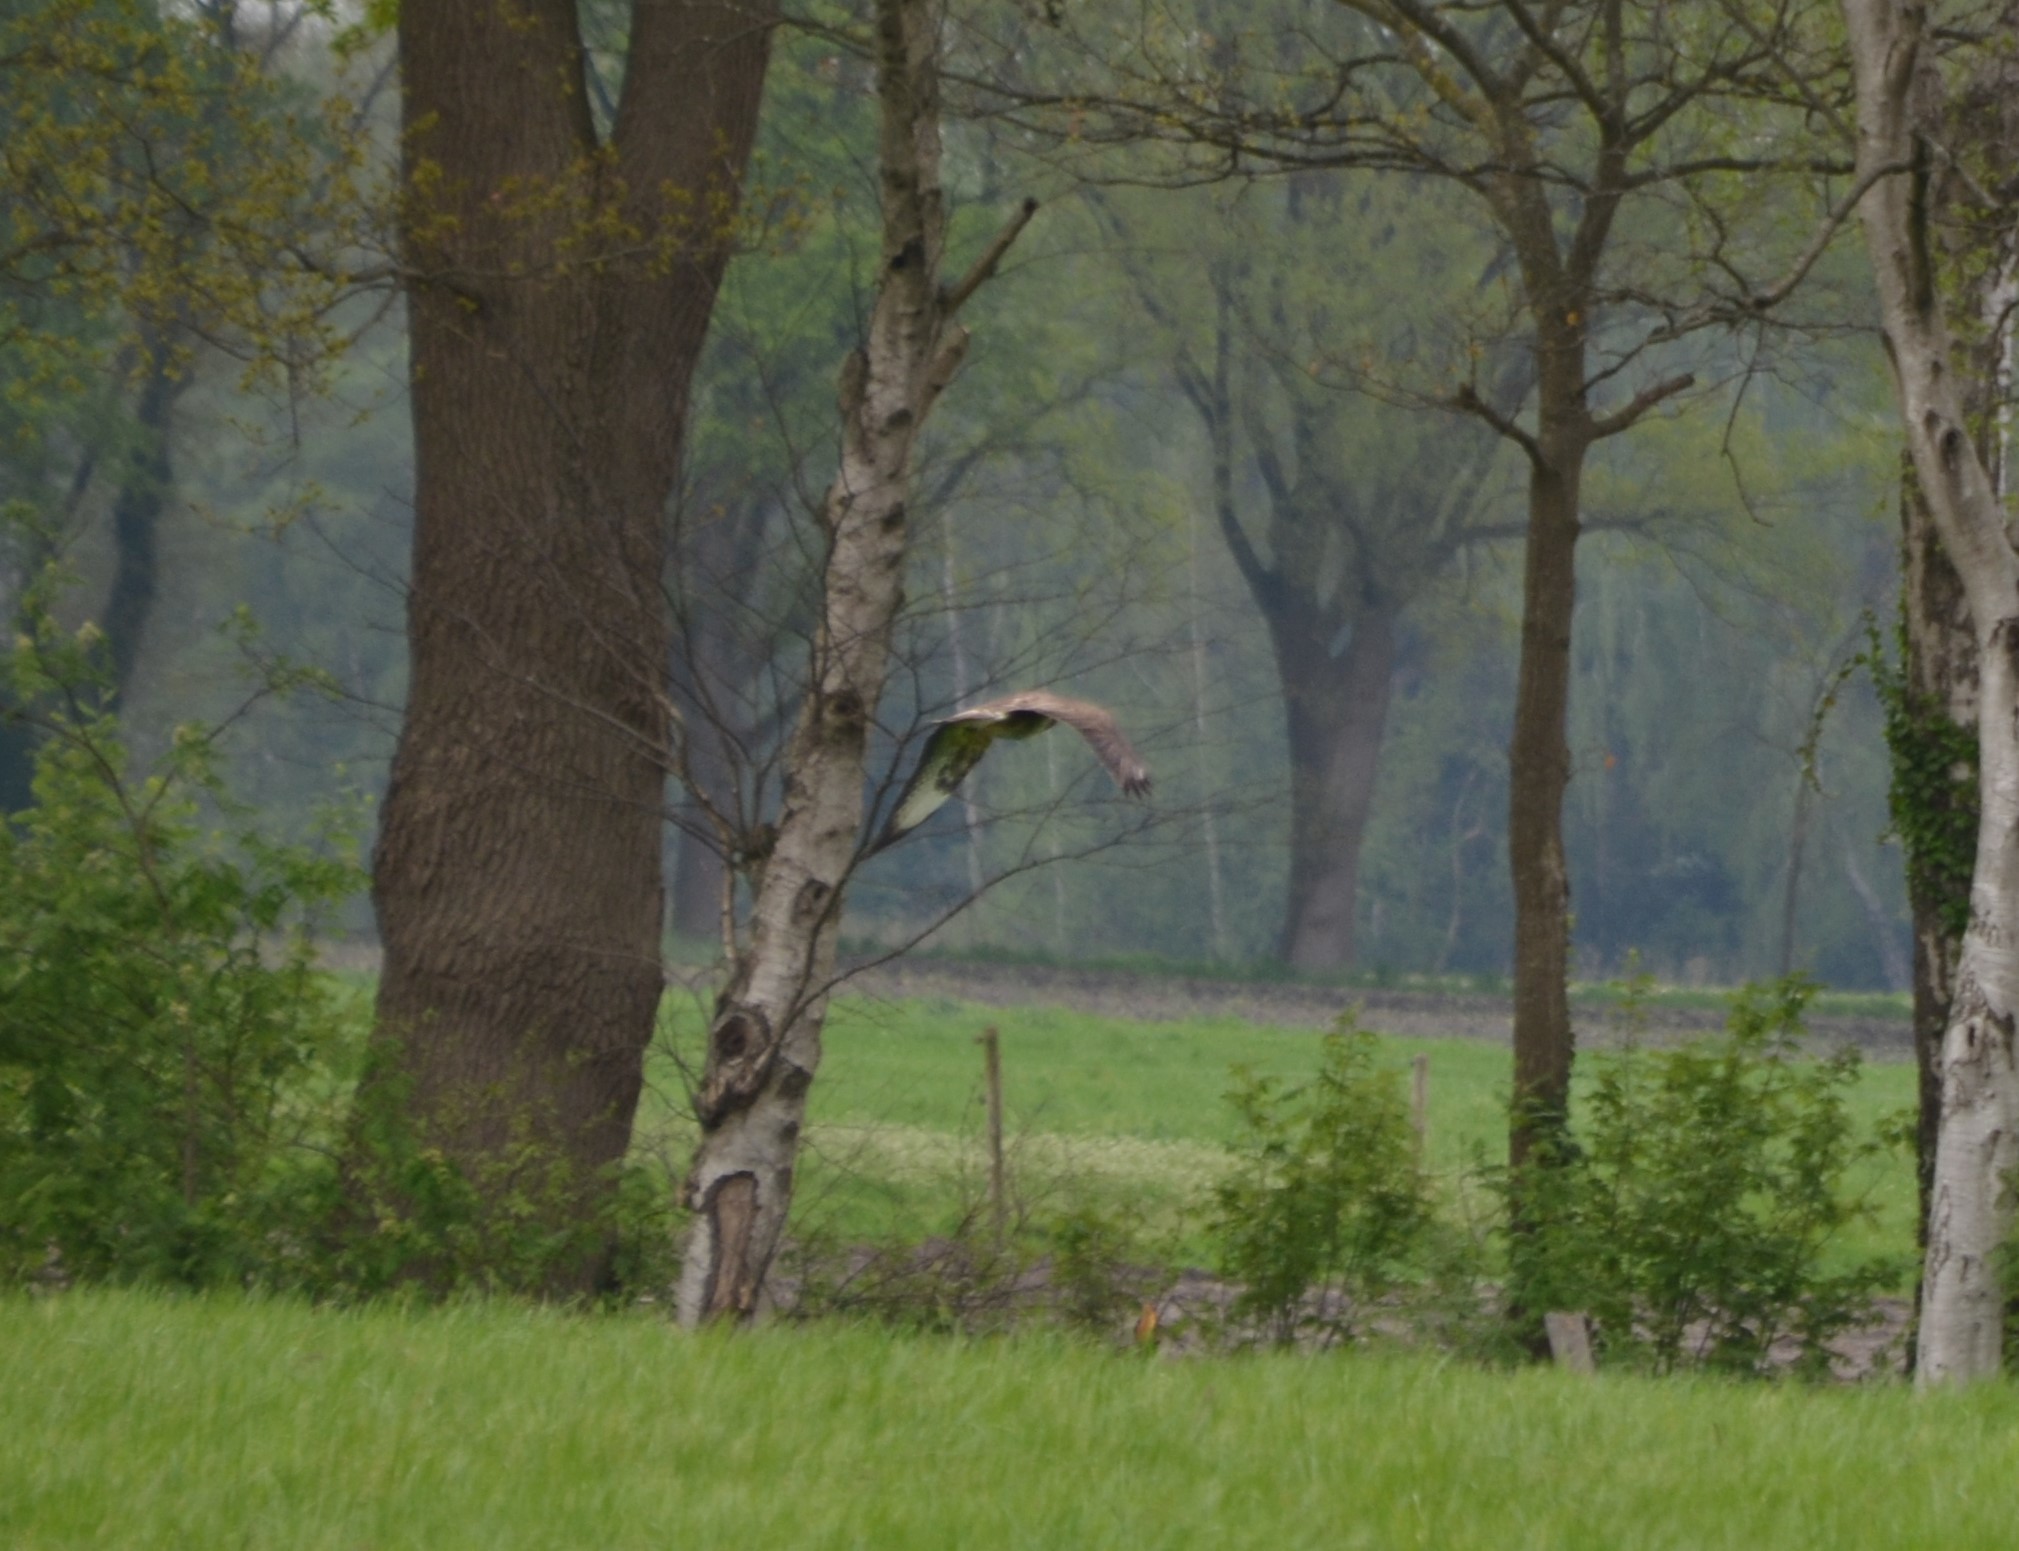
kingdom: Animalia
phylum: Chordata
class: Aves
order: Accipitriformes
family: Accipitridae
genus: Buteo
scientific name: Buteo buteo
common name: Common buzzard
